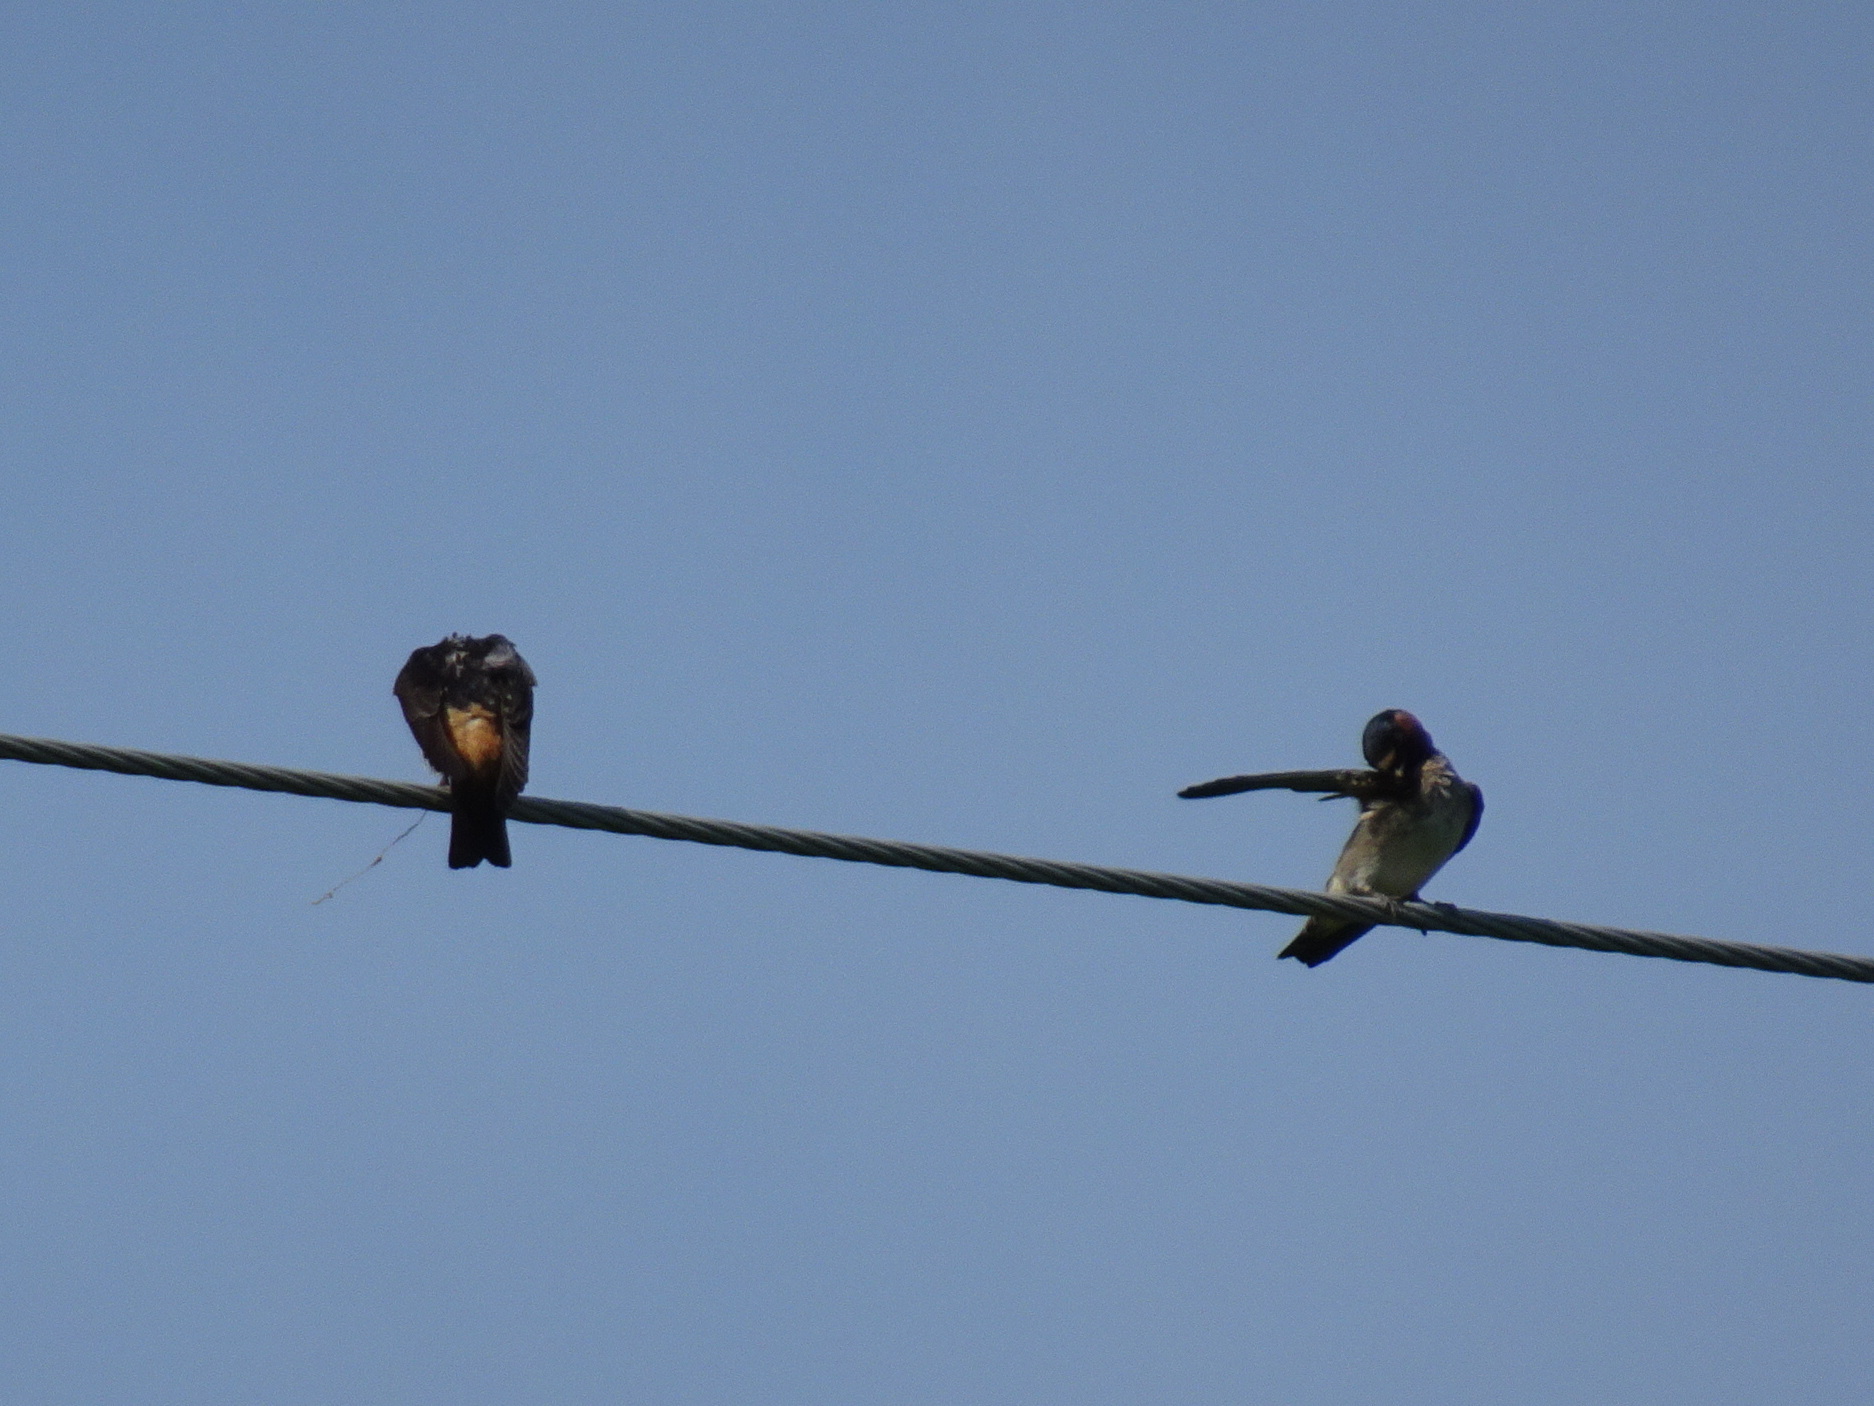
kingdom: Animalia
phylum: Chordata
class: Aves
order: Passeriformes
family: Hirundinidae
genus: Petrochelidon
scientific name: Petrochelidon pyrrhonota
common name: American cliff swallow
